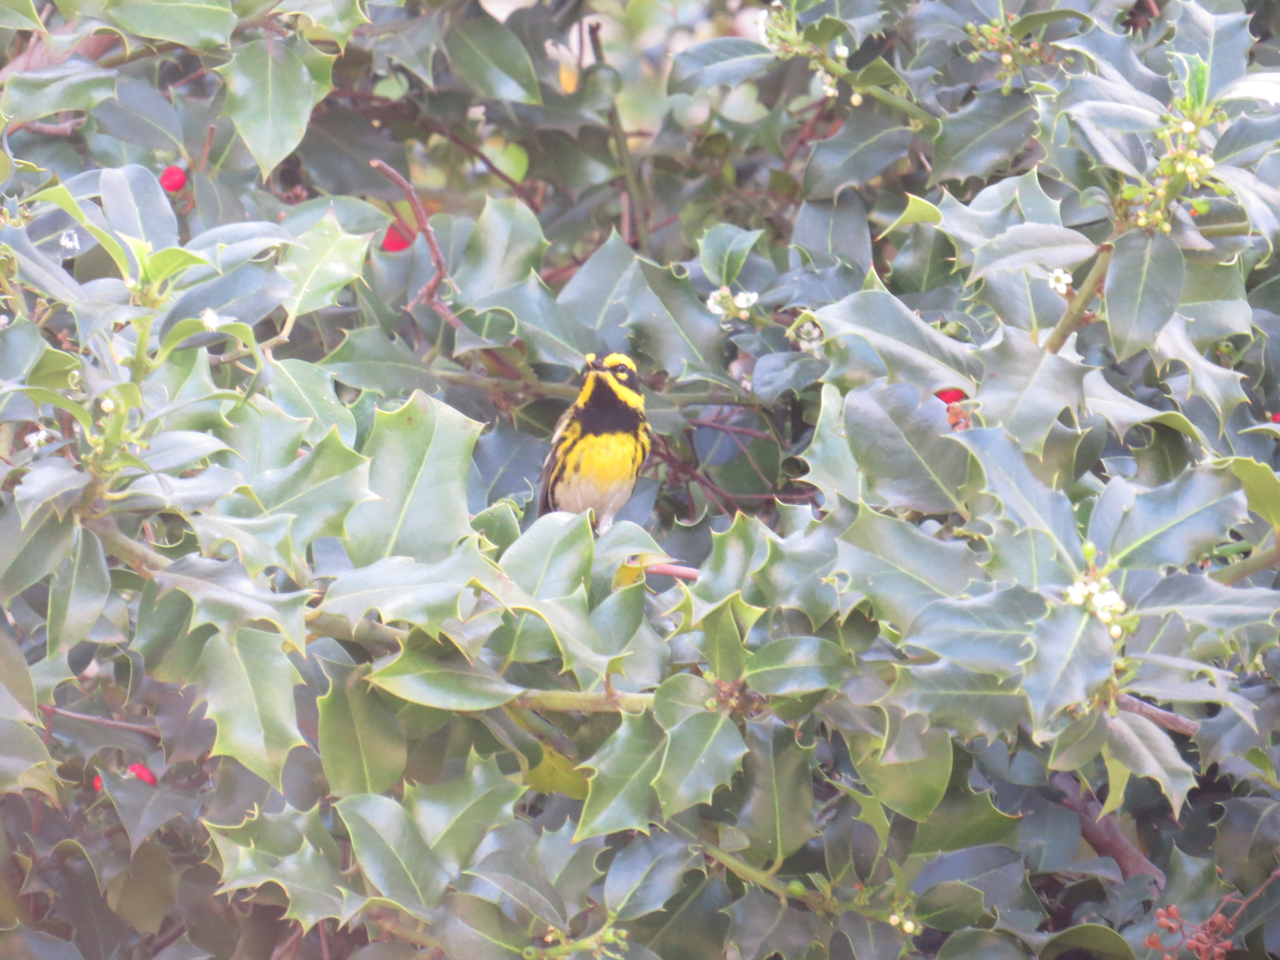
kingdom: Animalia
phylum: Chordata
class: Aves
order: Passeriformes
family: Parulidae
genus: Setophaga
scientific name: Setophaga townsendi
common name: Townsend's warbler
